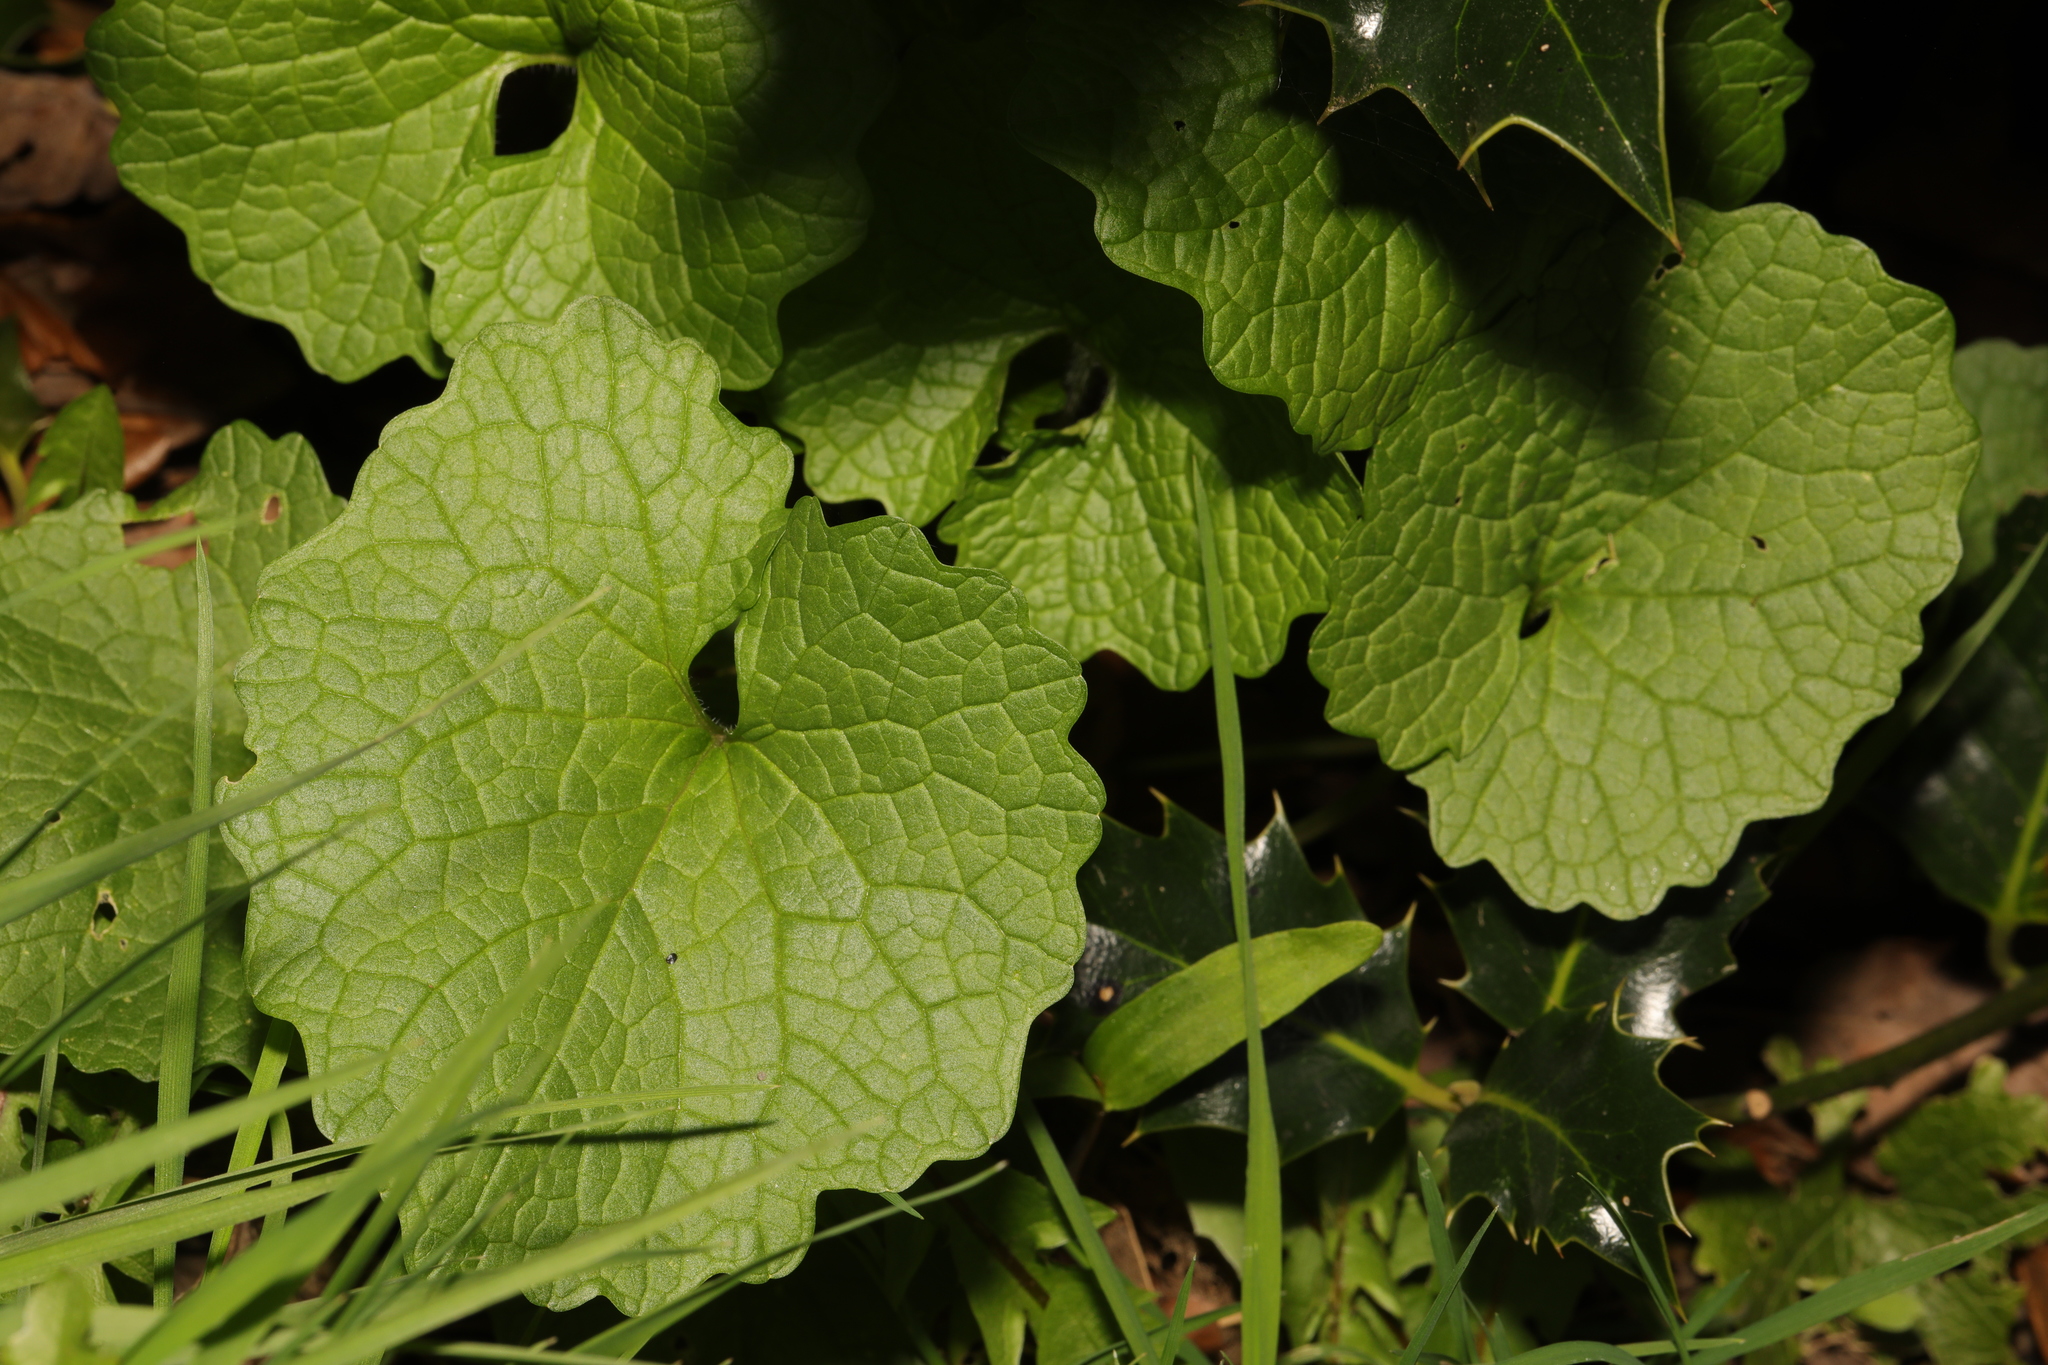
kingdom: Plantae
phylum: Tracheophyta
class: Magnoliopsida
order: Brassicales
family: Brassicaceae
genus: Alliaria
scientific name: Alliaria petiolata
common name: Garlic mustard
